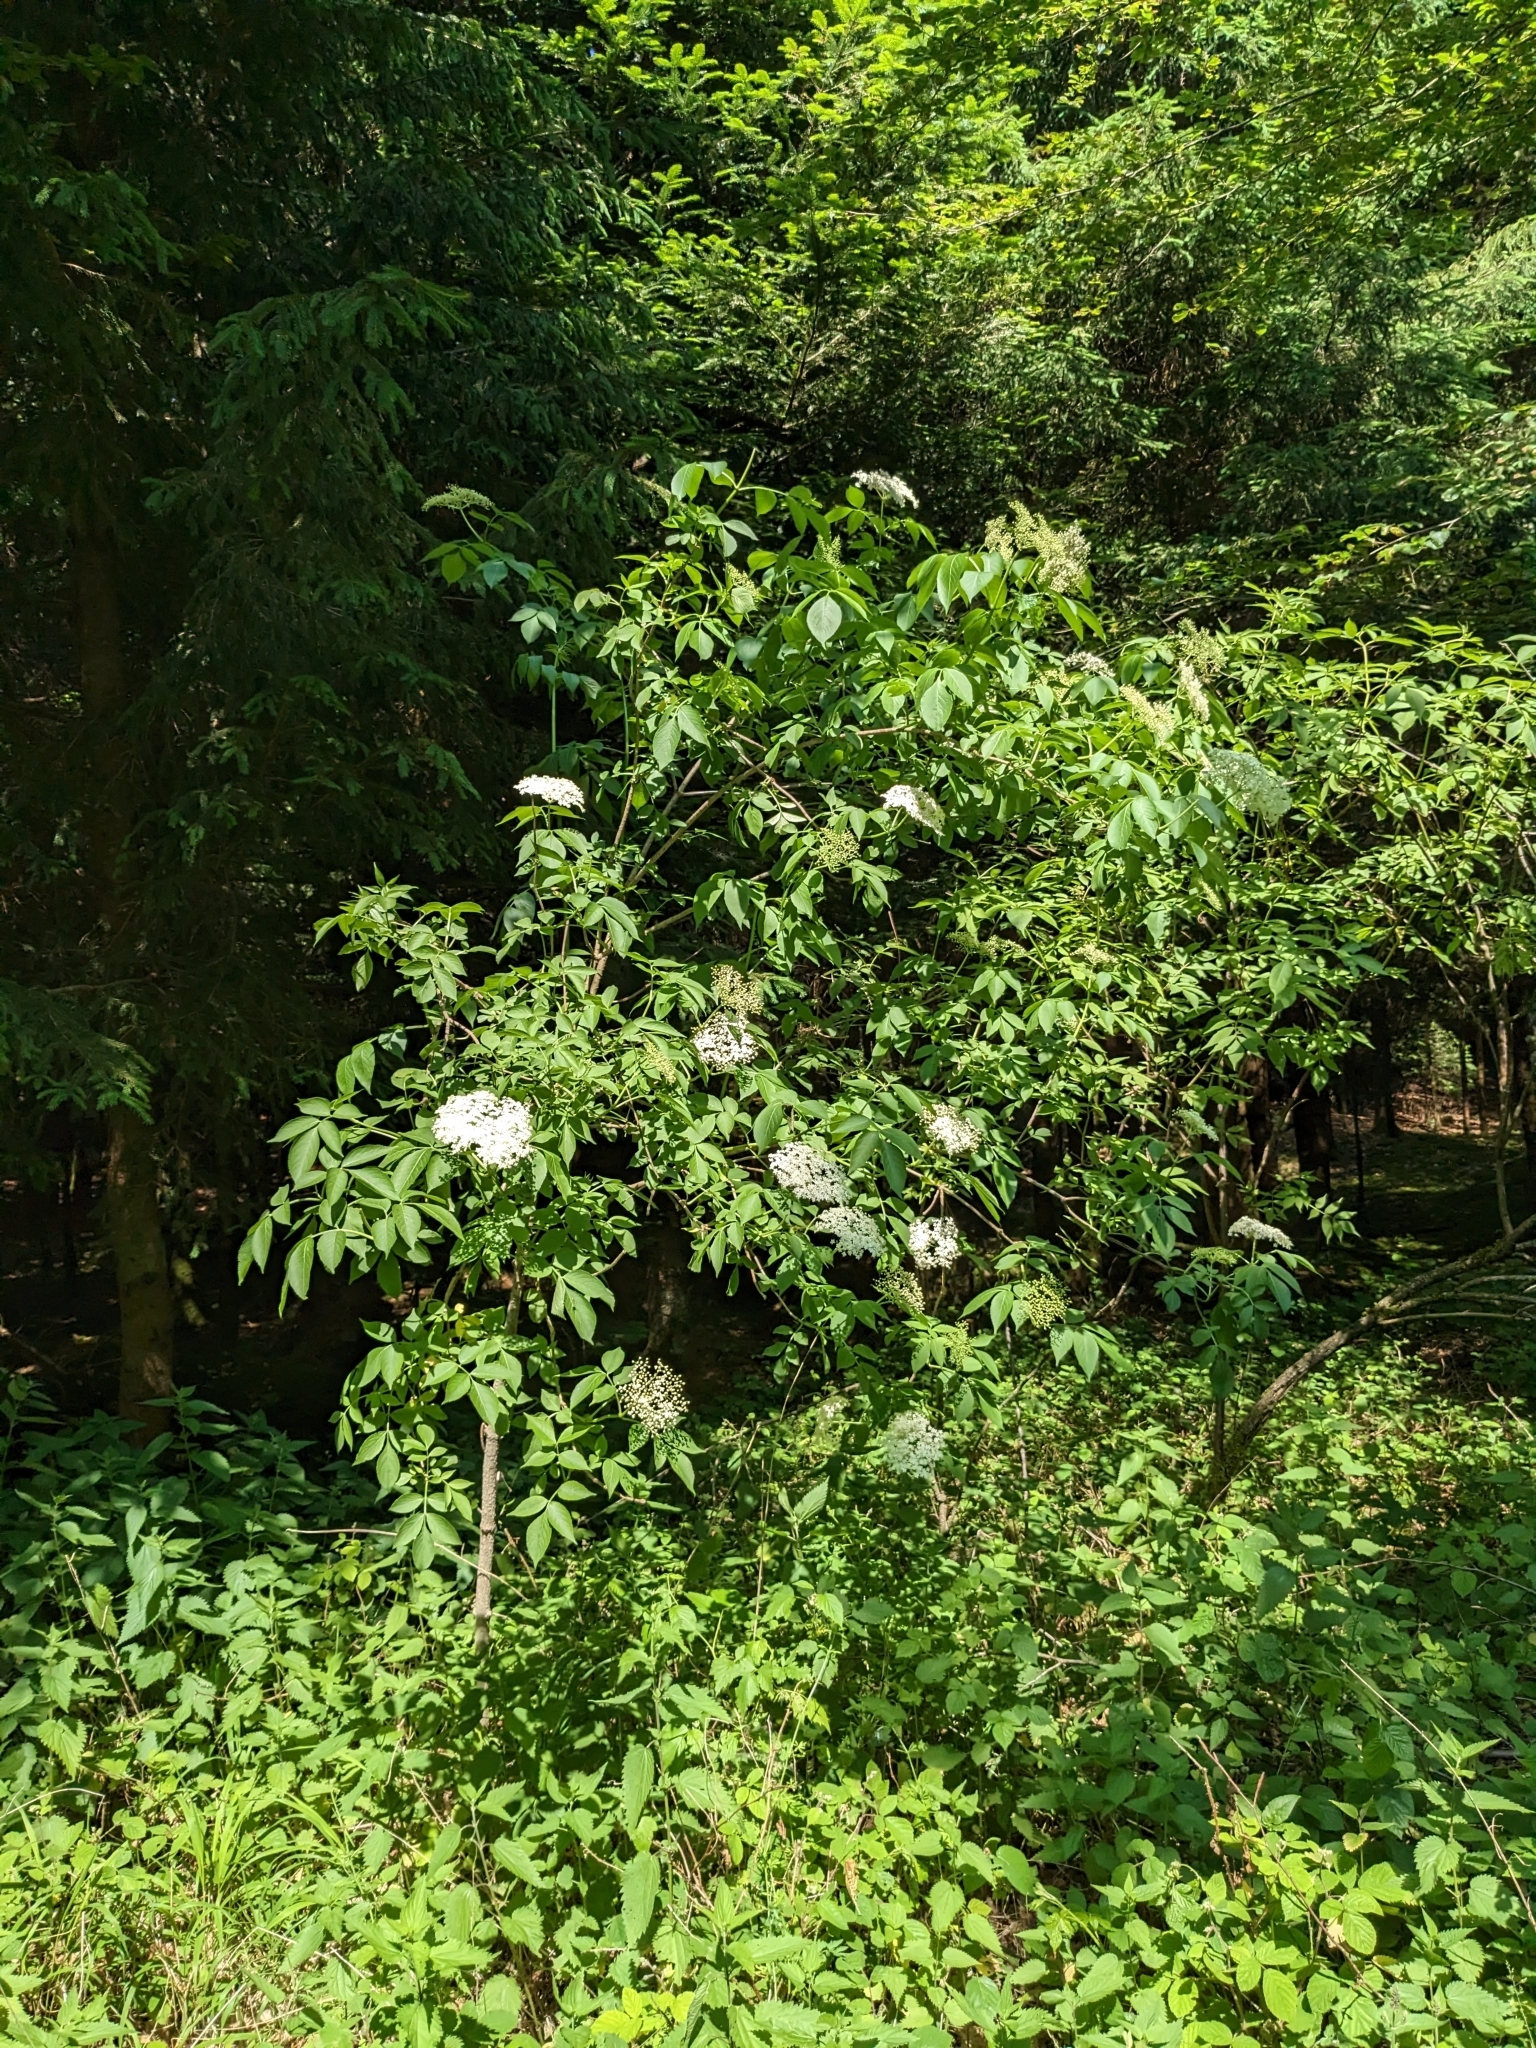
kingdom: Plantae
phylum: Tracheophyta
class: Magnoliopsida
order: Dipsacales
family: Viburnaceae
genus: Sambucus
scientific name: Sambucus nigra
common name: Elder
